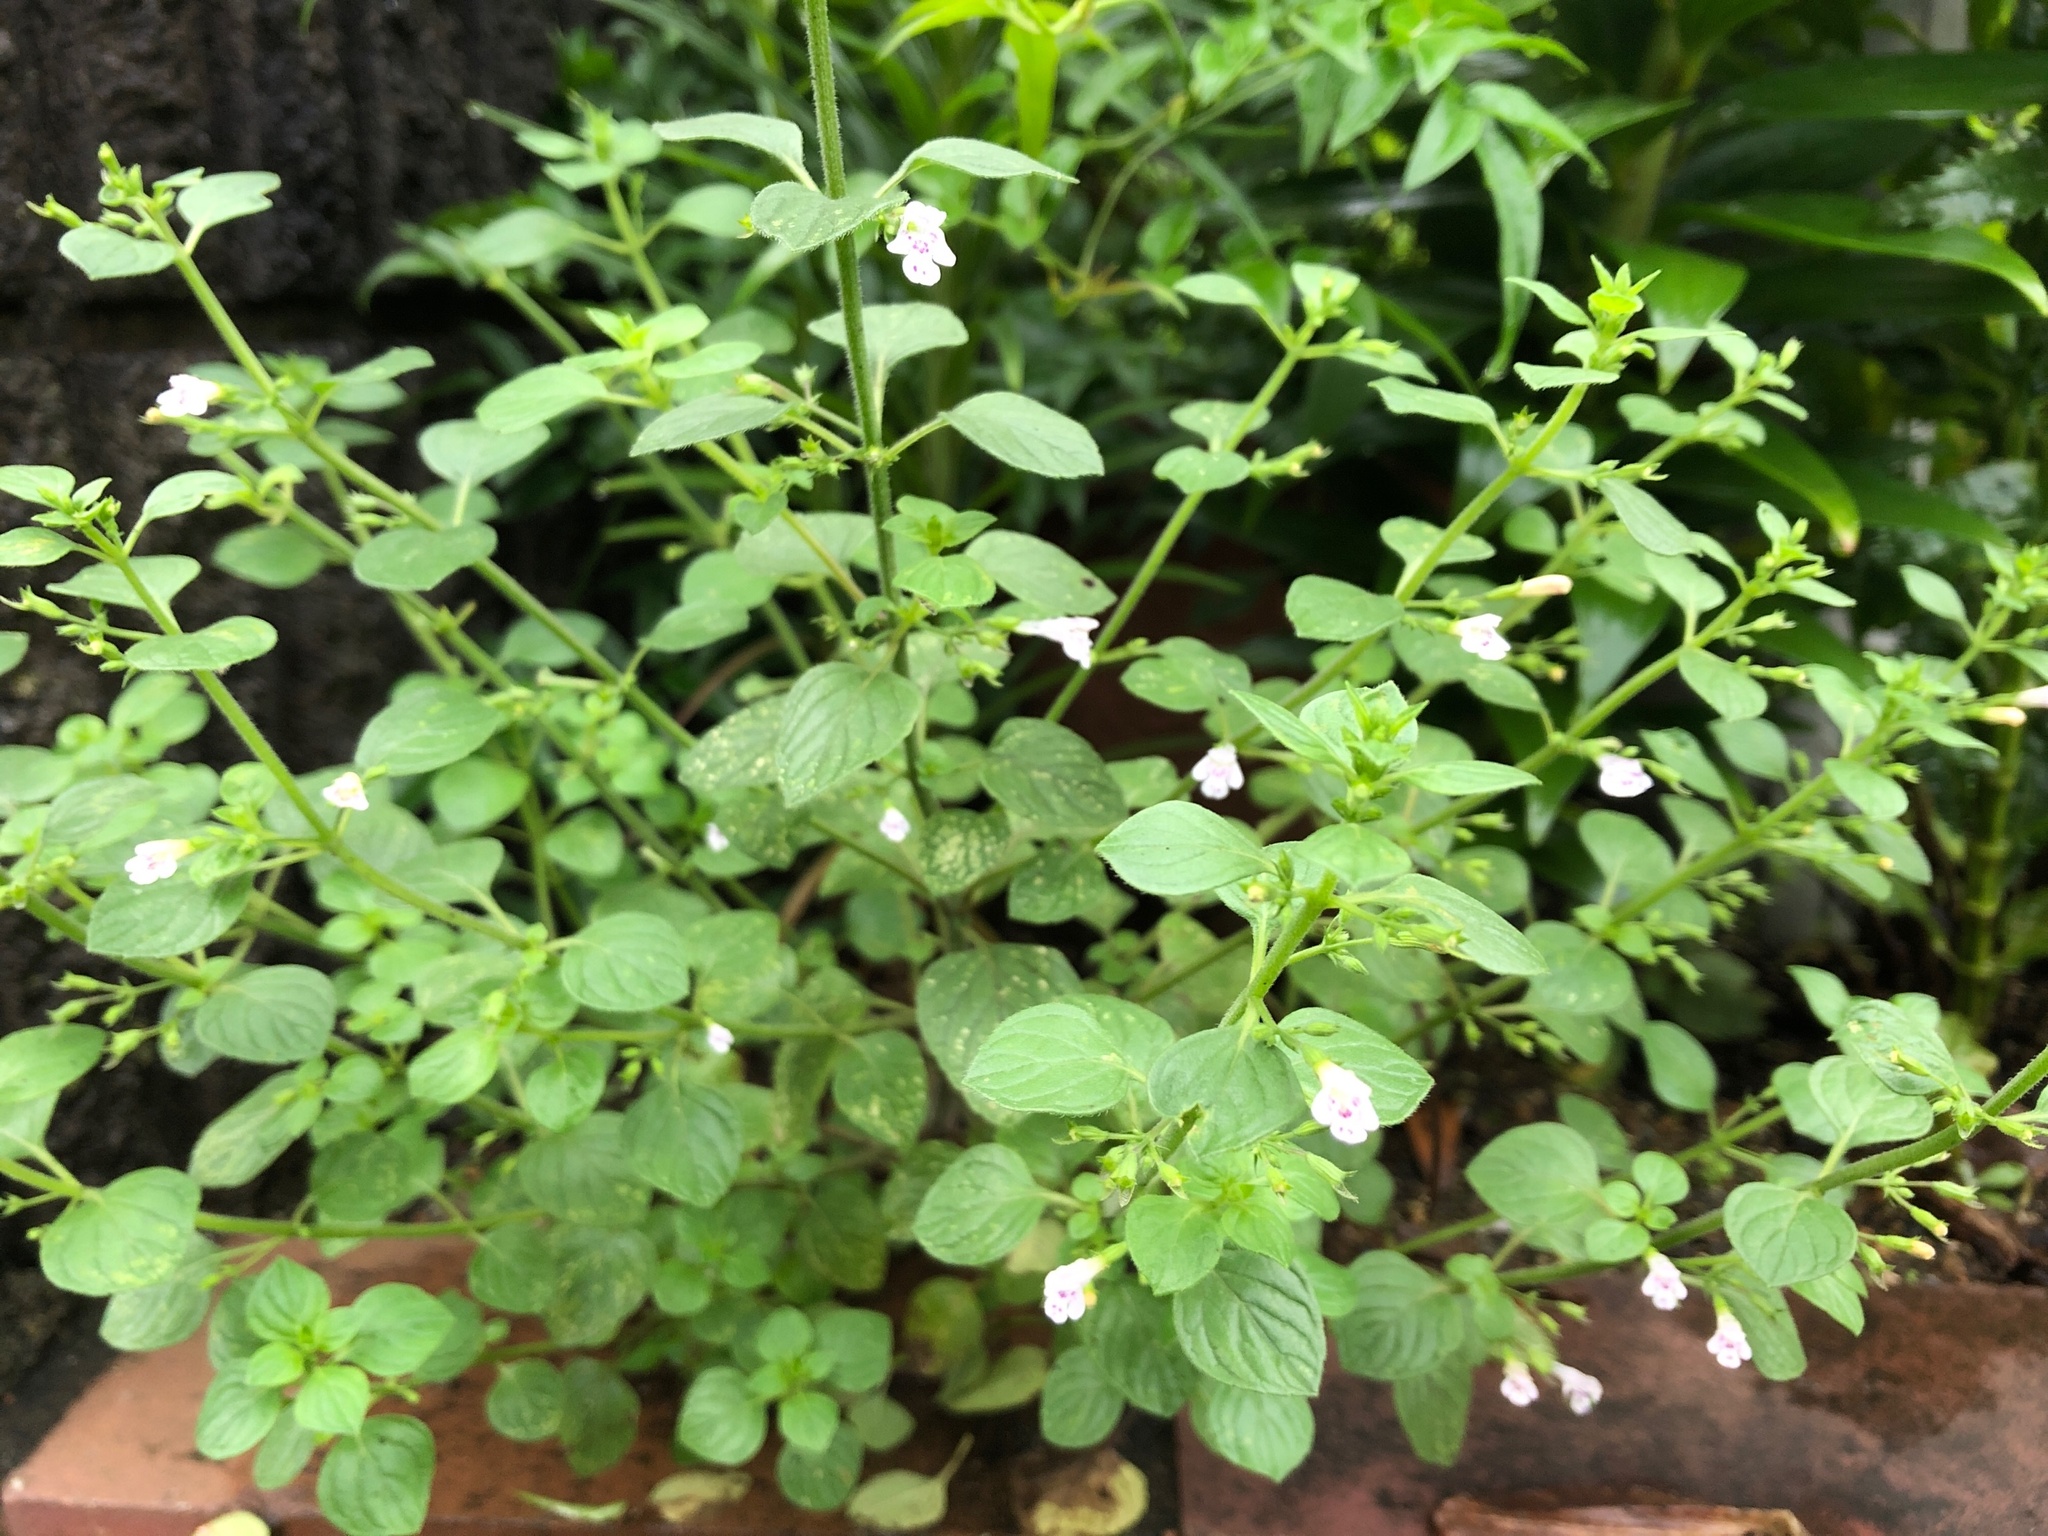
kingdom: Plantae
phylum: Tracheophyta
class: Magnoliopsida
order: Lamiales
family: Lamiaceae
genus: Clinopodium
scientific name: Clinopodium nepeta
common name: Lesser calamint
